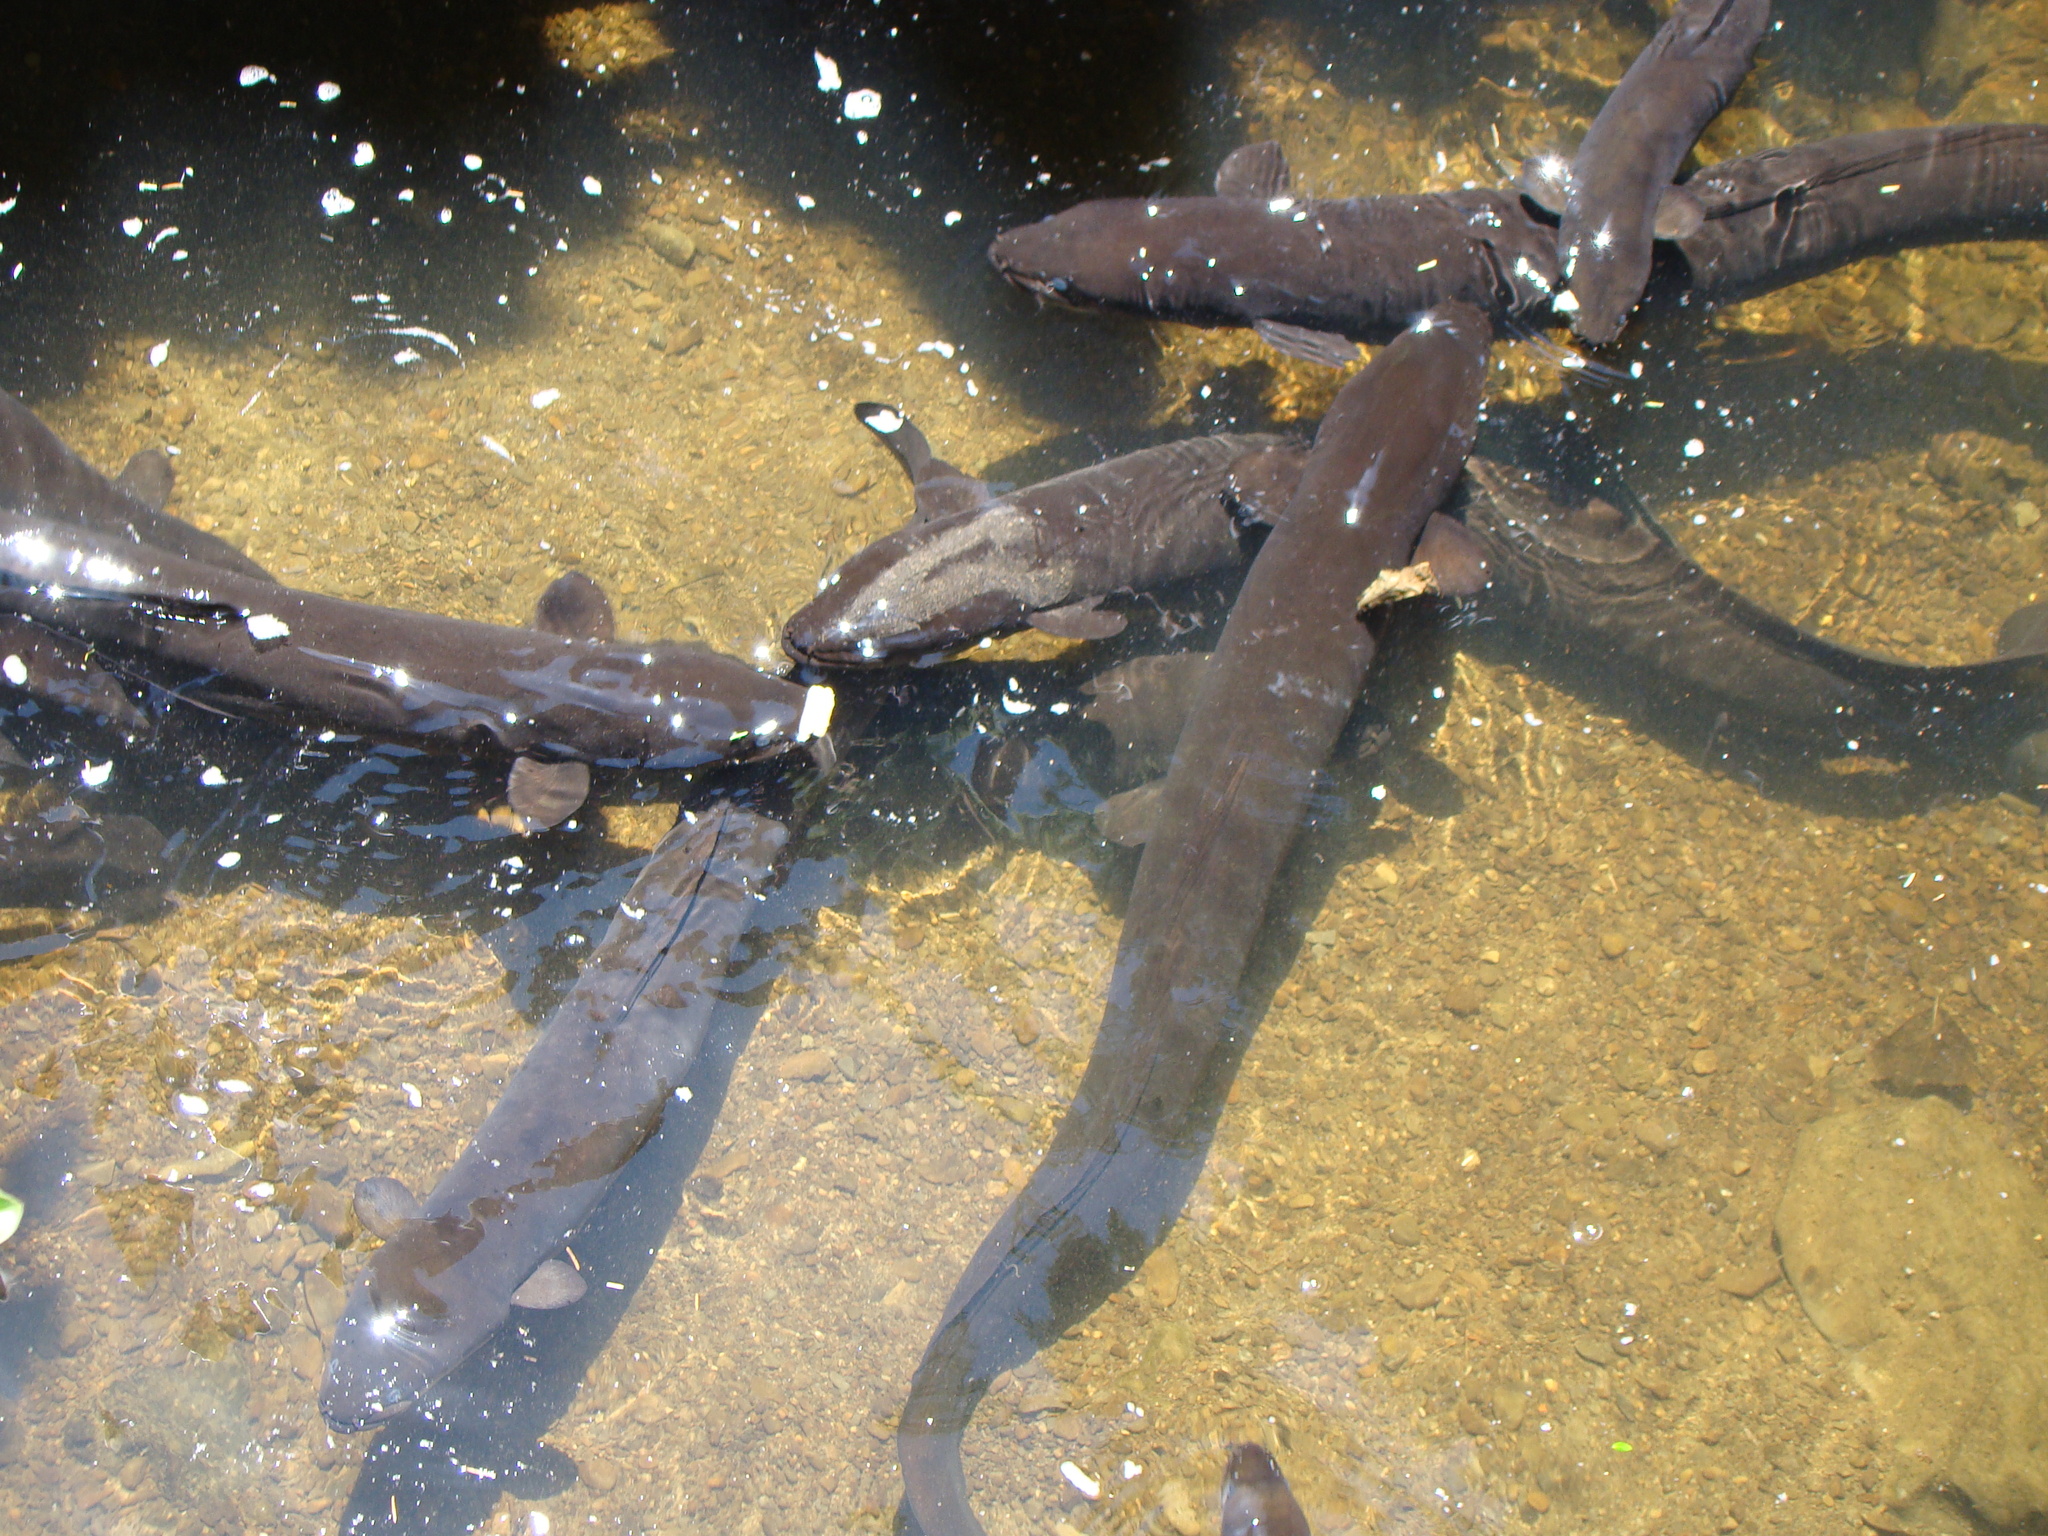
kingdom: Animalia
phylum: Chordata
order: Anguilliformes
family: Anguillidae
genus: Anguilla
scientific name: Anguilla dieffenbachii
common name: New zealand longfin eel
